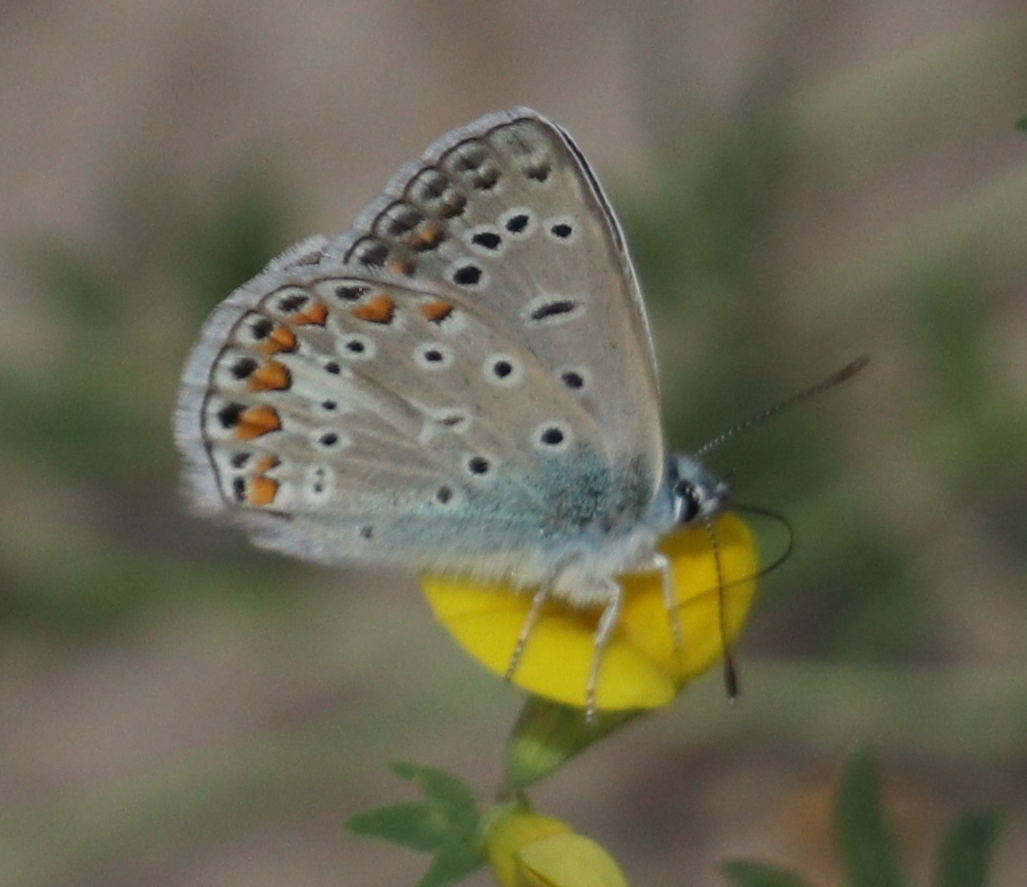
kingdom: Animalia
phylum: Arthropoda
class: Insecta
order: Lepidoptera
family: Lycaenidae
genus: Polyommatus
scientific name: Polyommatus icarus
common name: Common blue
